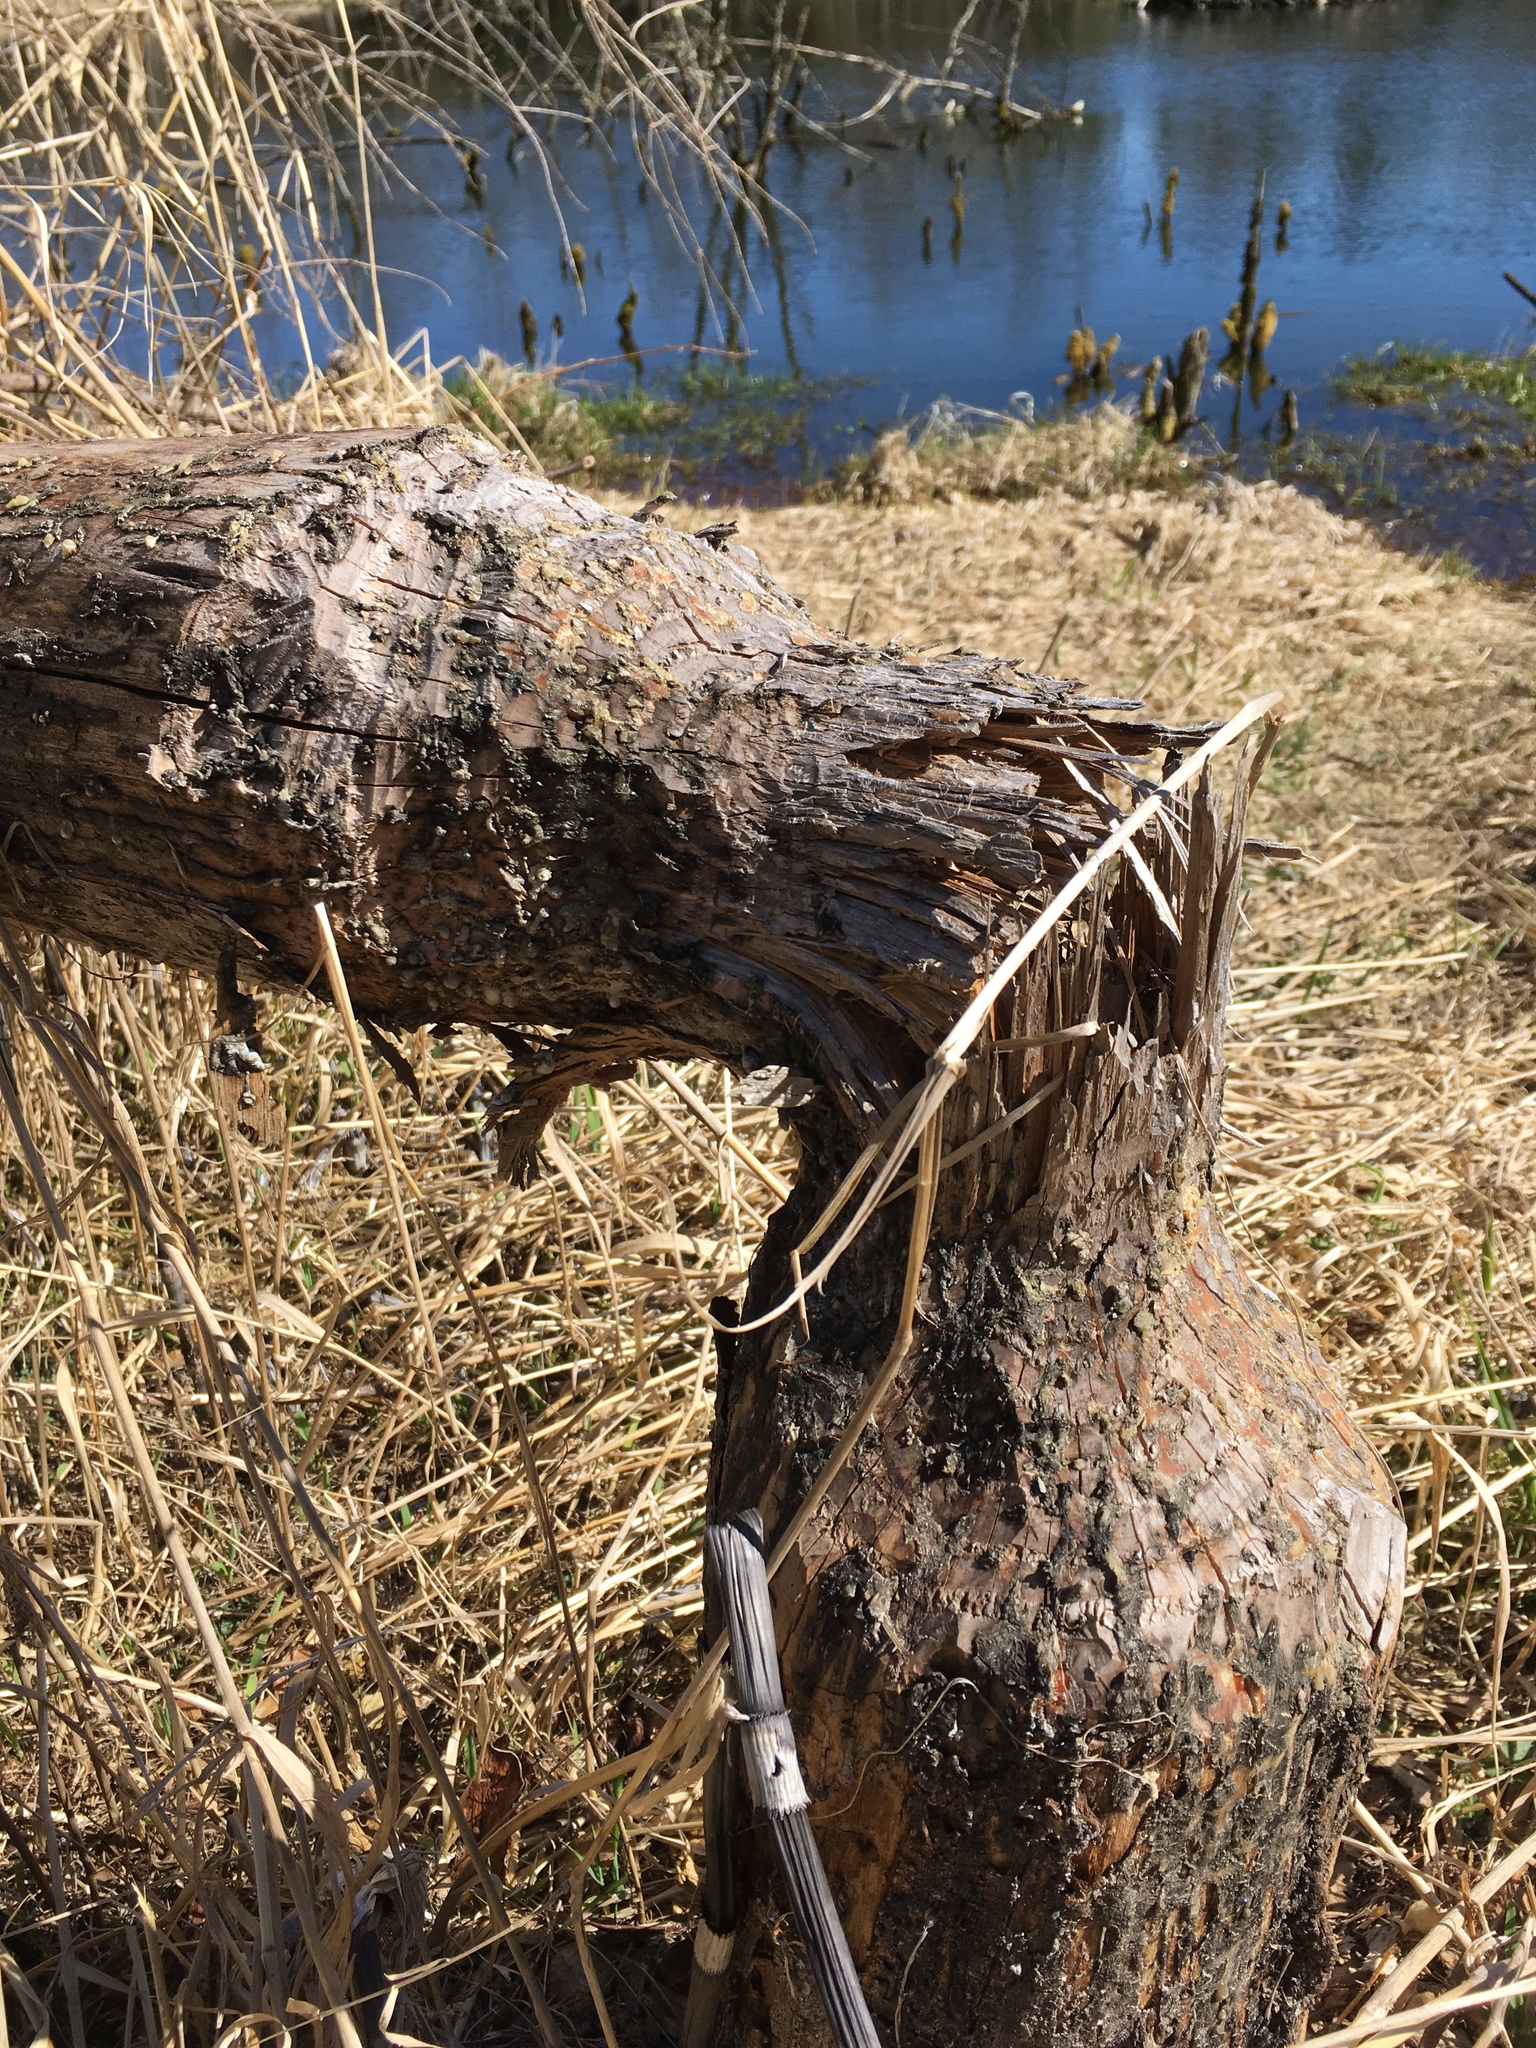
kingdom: Animalia
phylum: Chordata
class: Mammalia
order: Rodentia
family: Castoridae
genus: Castor
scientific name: Castor canadensis
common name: American beaver
